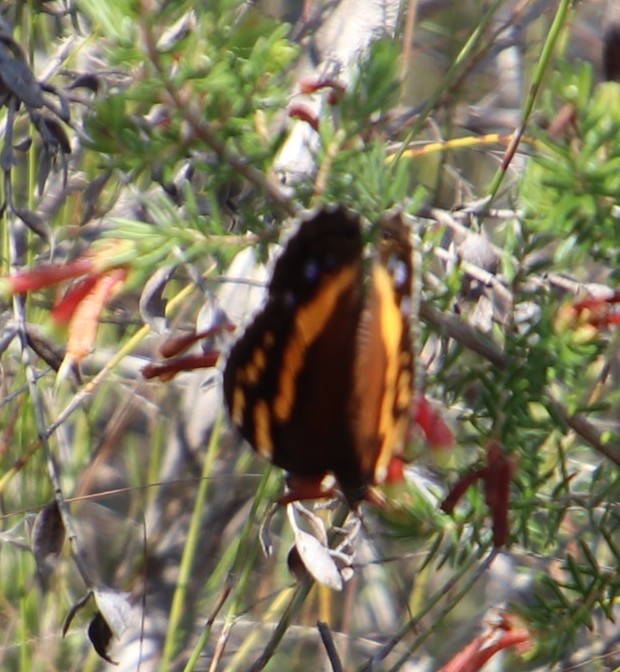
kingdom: Animalia
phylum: Arthropoda
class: Insecta
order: Lepidoptera
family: Nymphalidae
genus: Meneris
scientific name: Meneris Aeropetes tulbaghia
